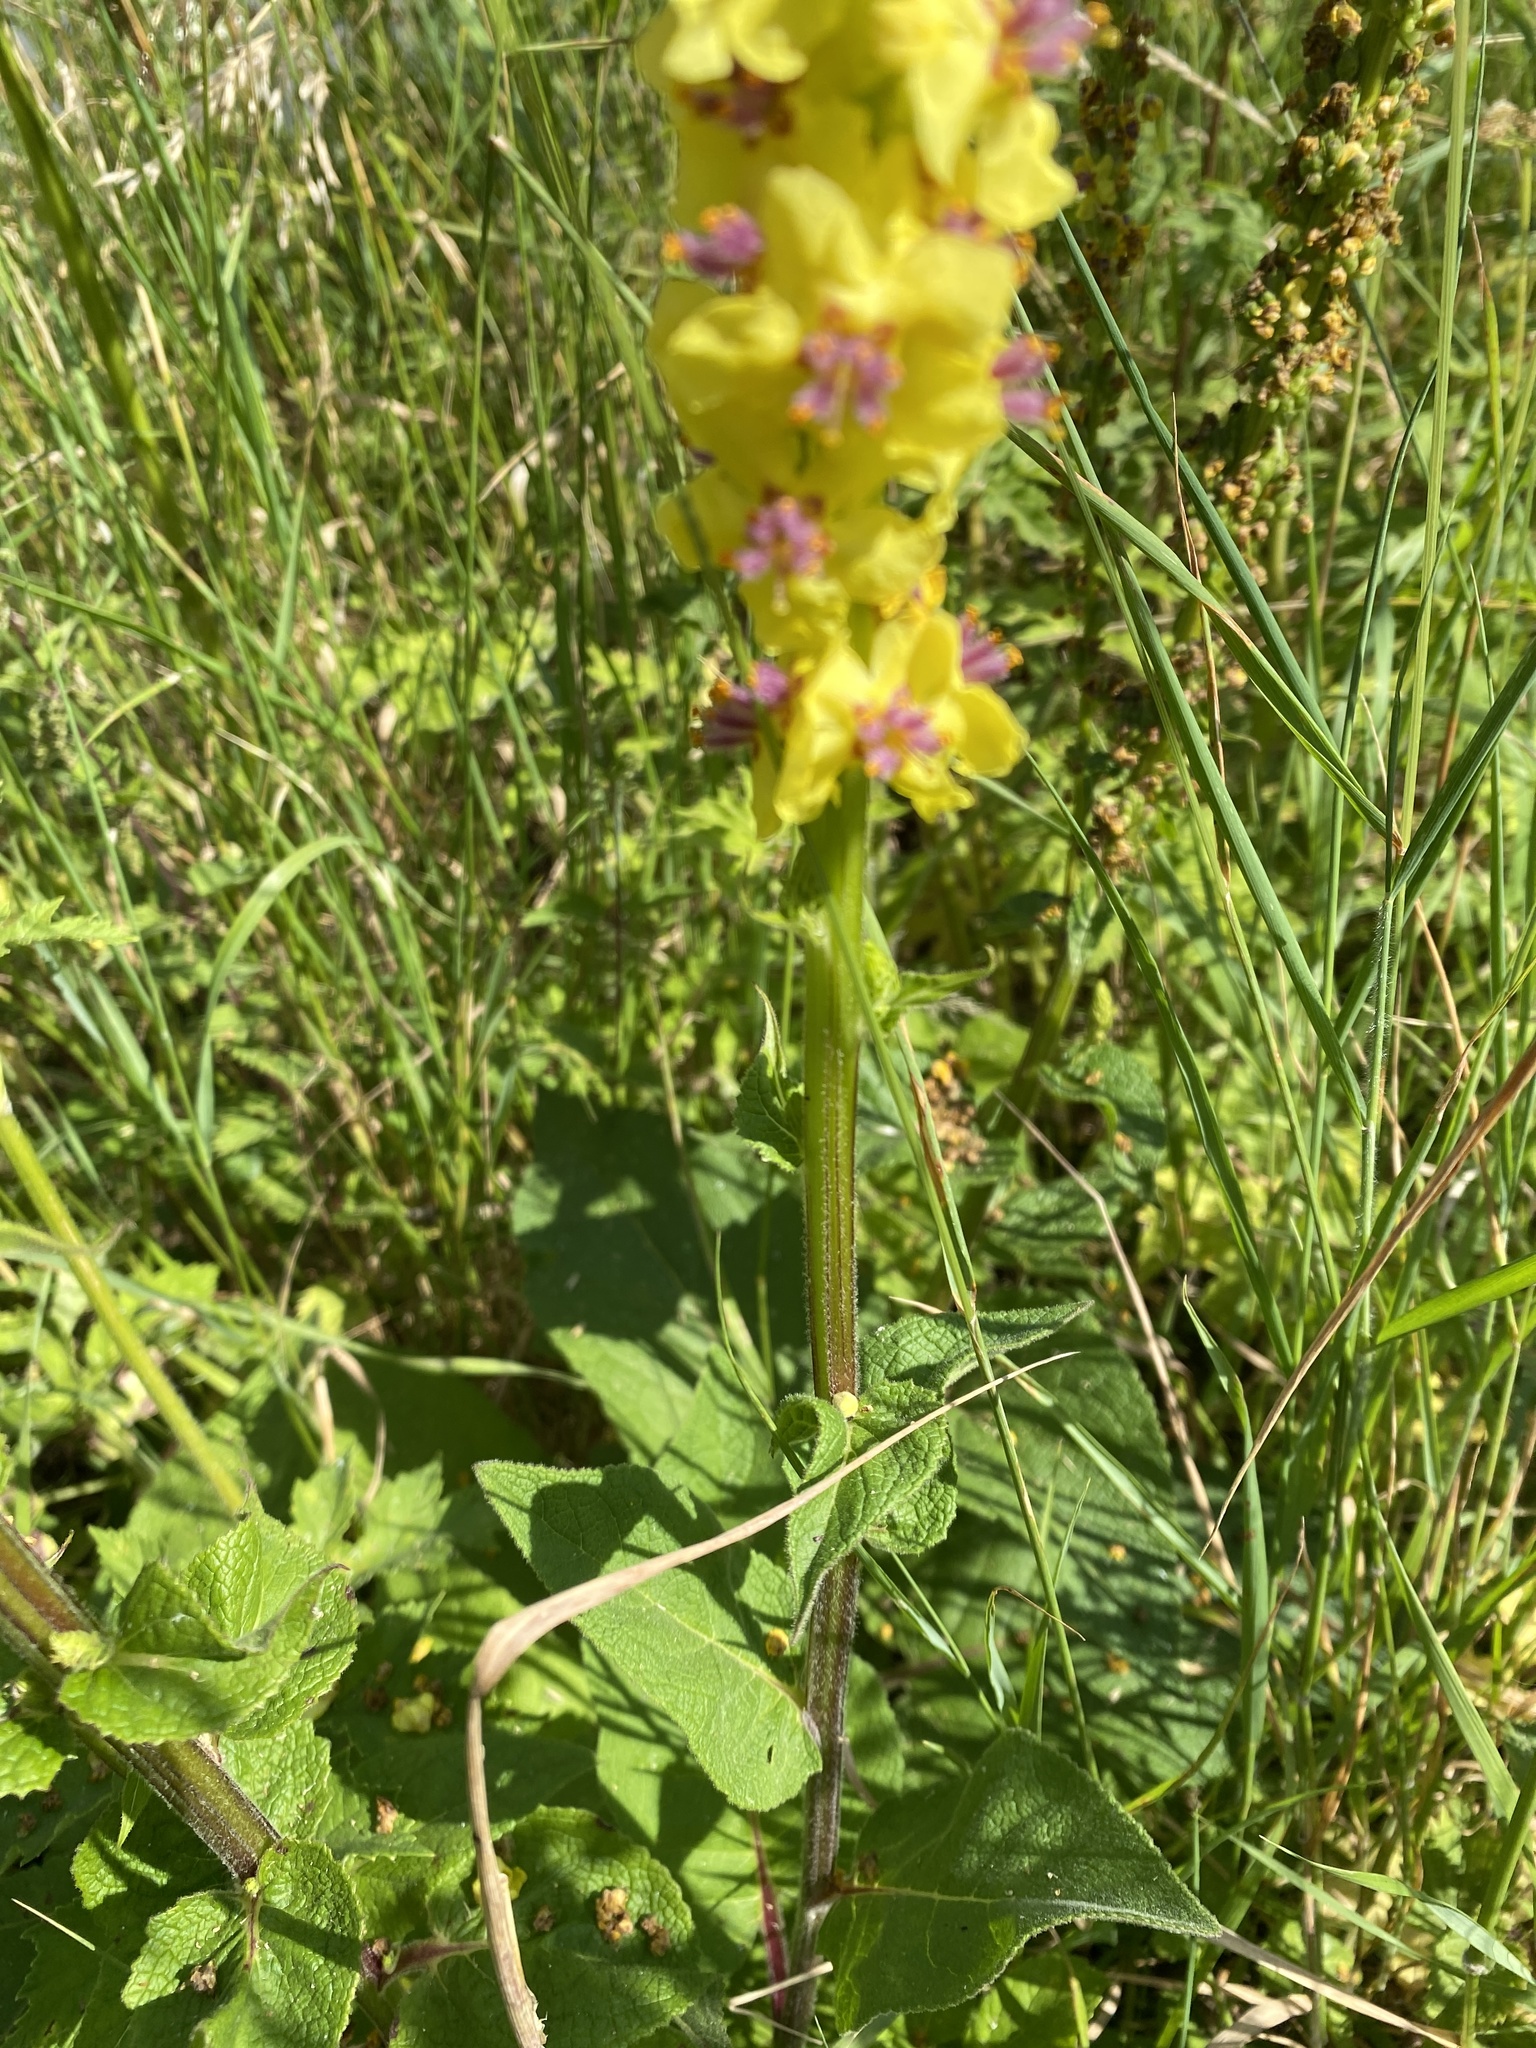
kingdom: Plantae
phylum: Tracheophyta
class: Magnoliopsida
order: Lamiales
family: Scrophulariaceae
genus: Verbascum
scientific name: Verbascum nigrum
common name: Dark mullein
